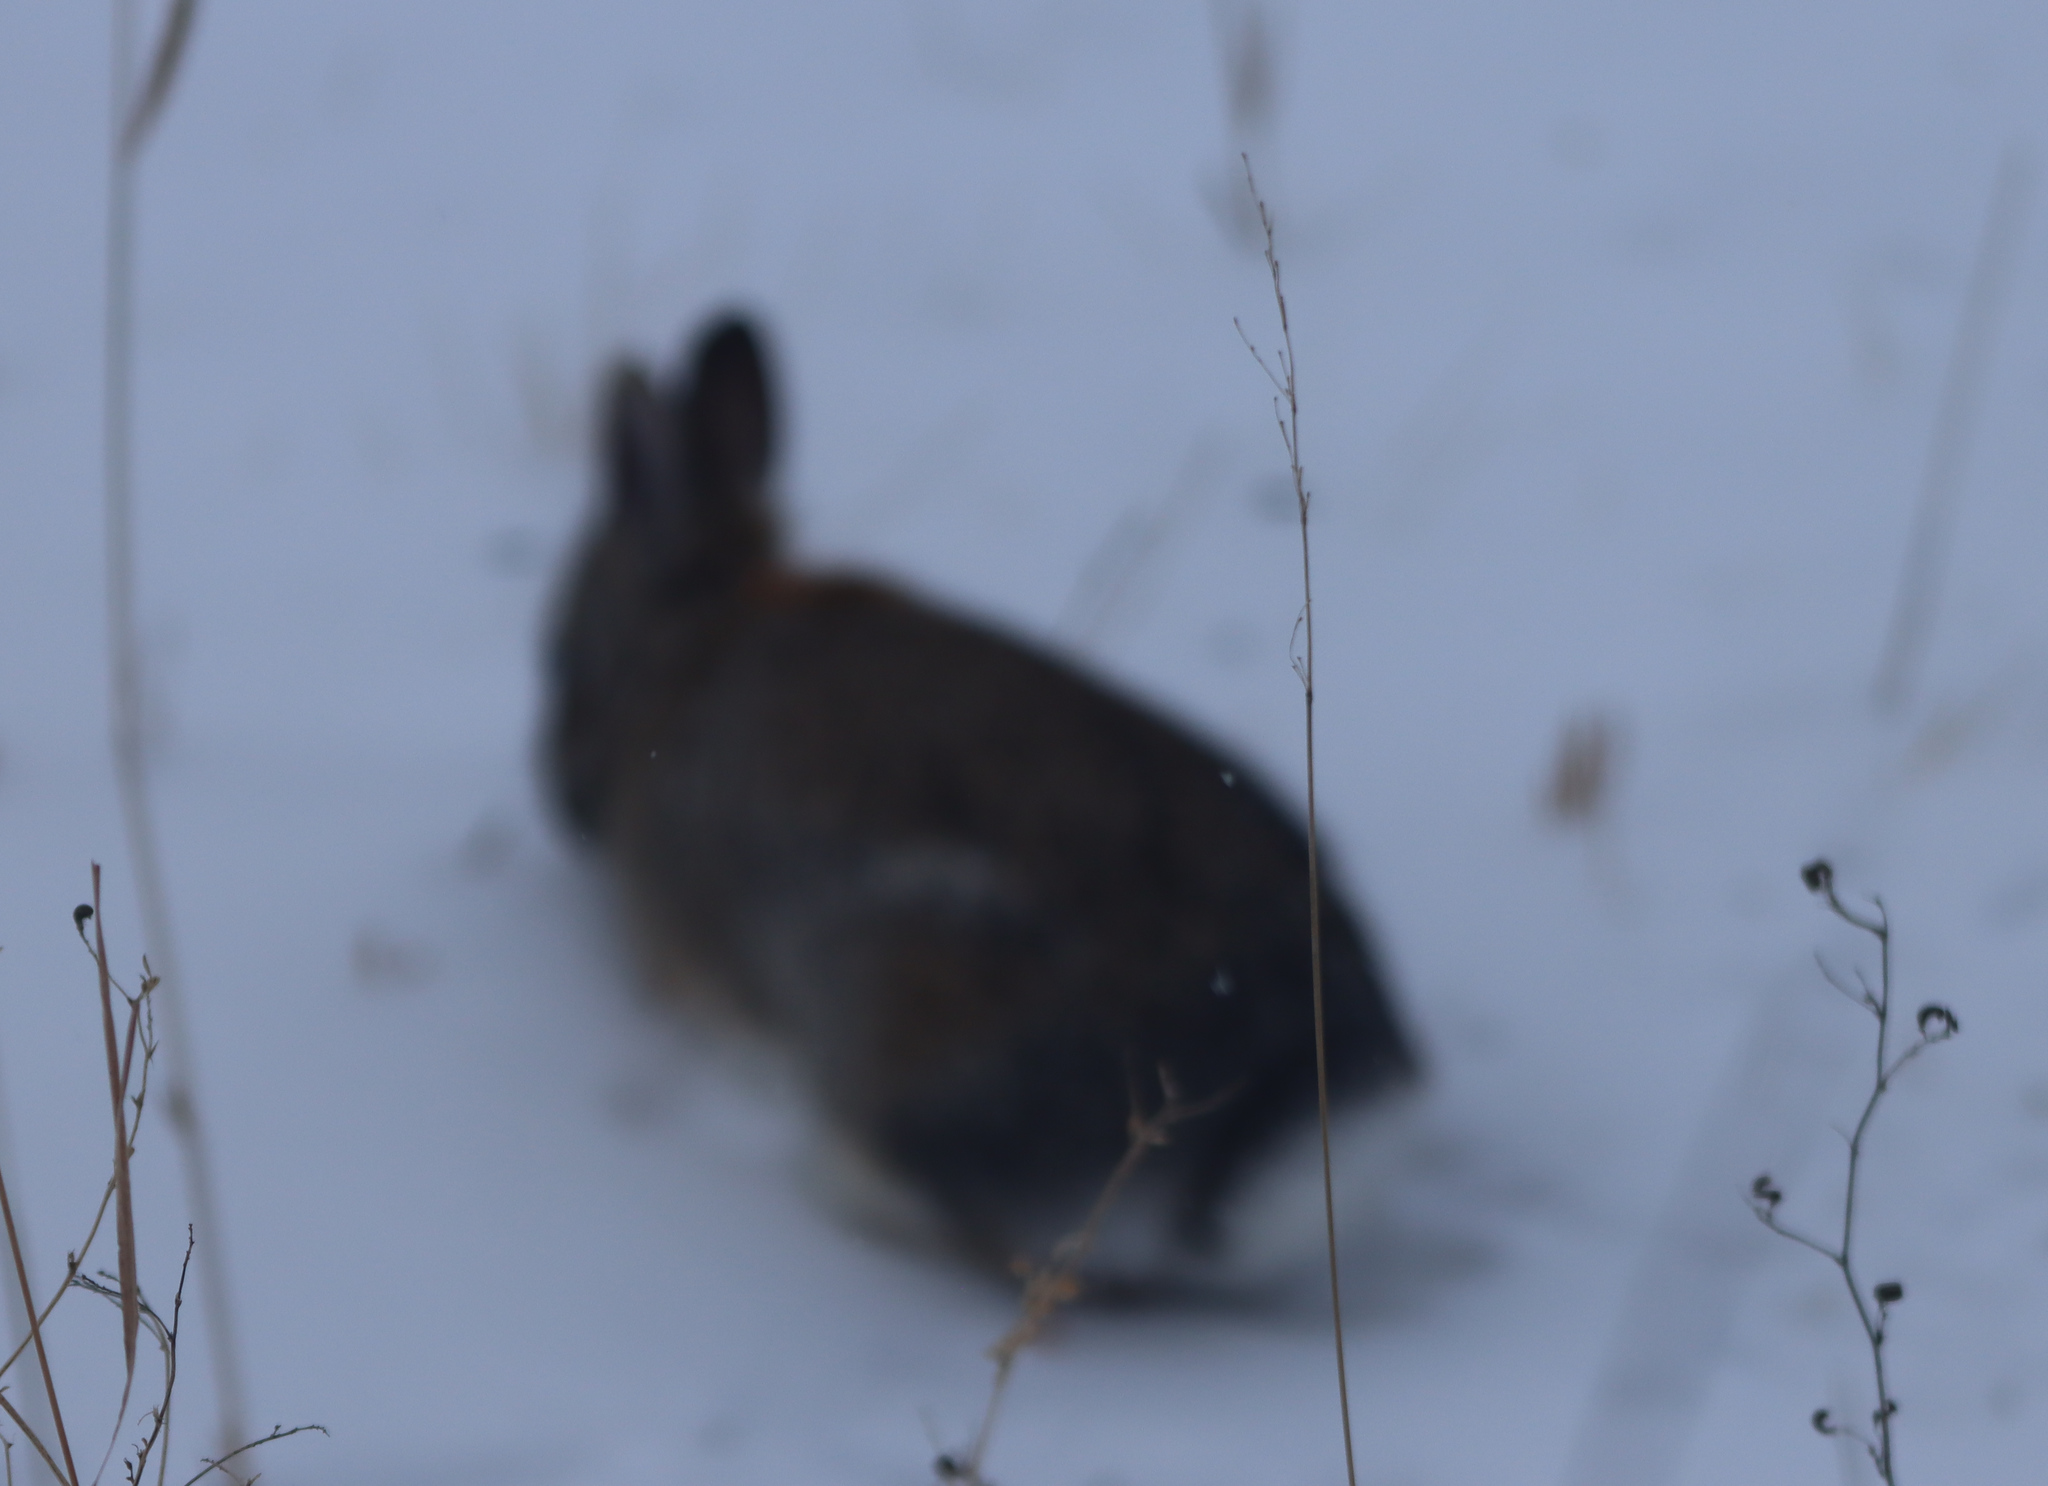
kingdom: Animalia
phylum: Chordata
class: Mammalia
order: Lagomorpha
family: Leporidae
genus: Sylvilagus
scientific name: Sylvilagus floridanus
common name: Eastern cottontail
